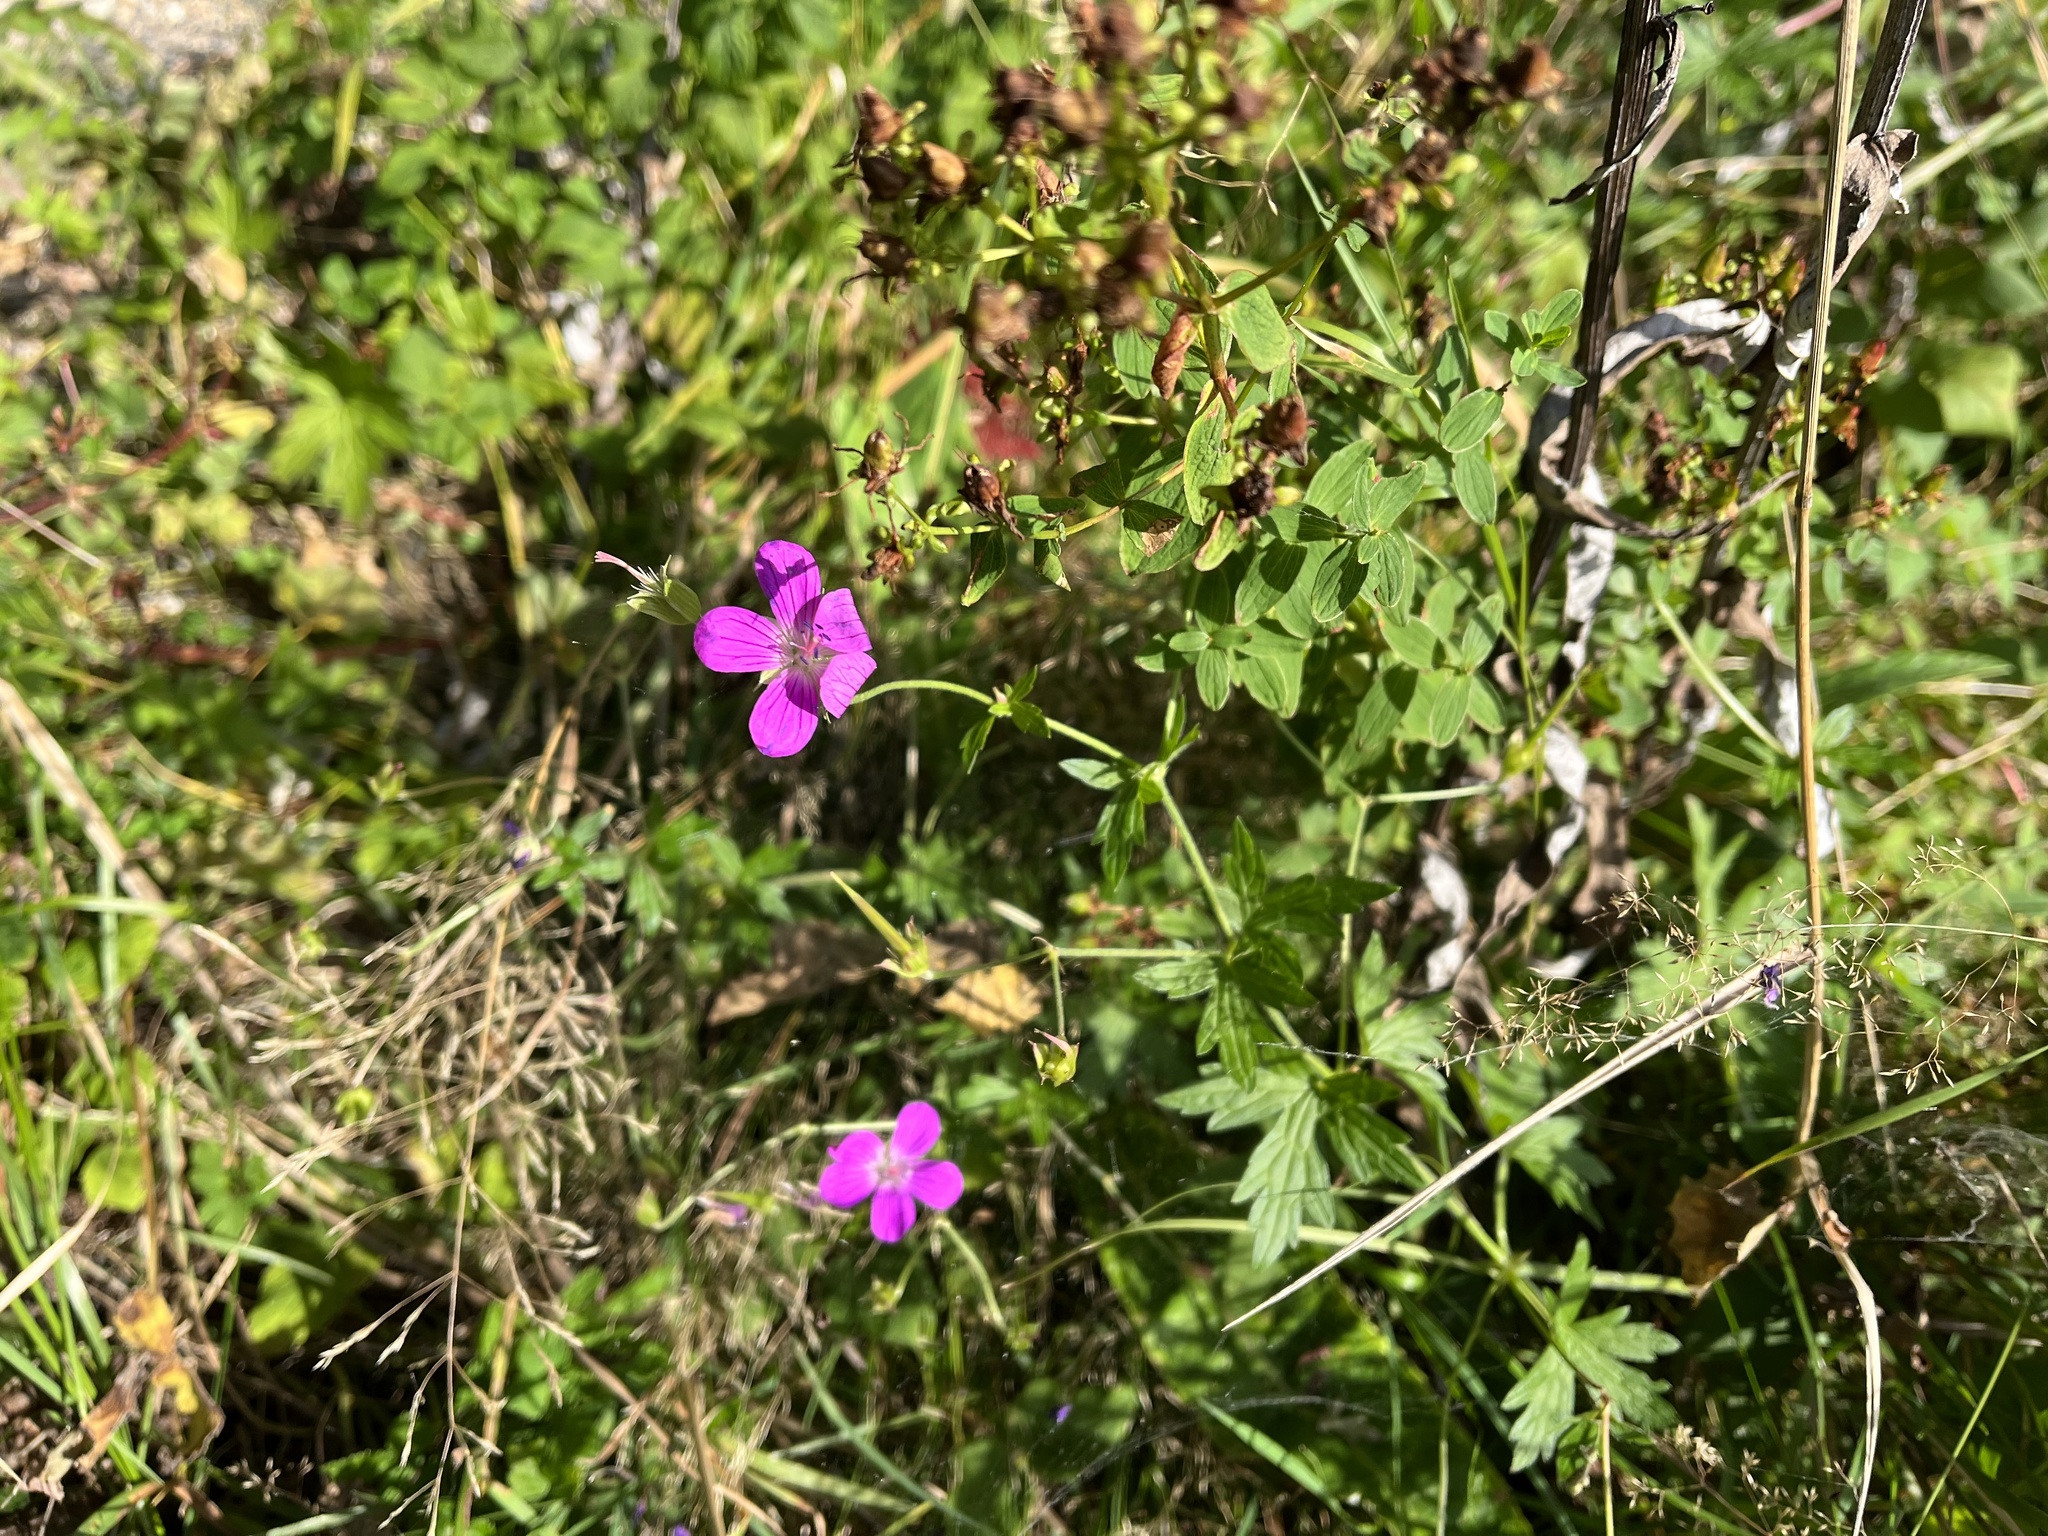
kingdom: Plantae
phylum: Tracheophyta
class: Magnoliopsida
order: Geraniales
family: Geraniaceae
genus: Geranium
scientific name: Geranium palustre
